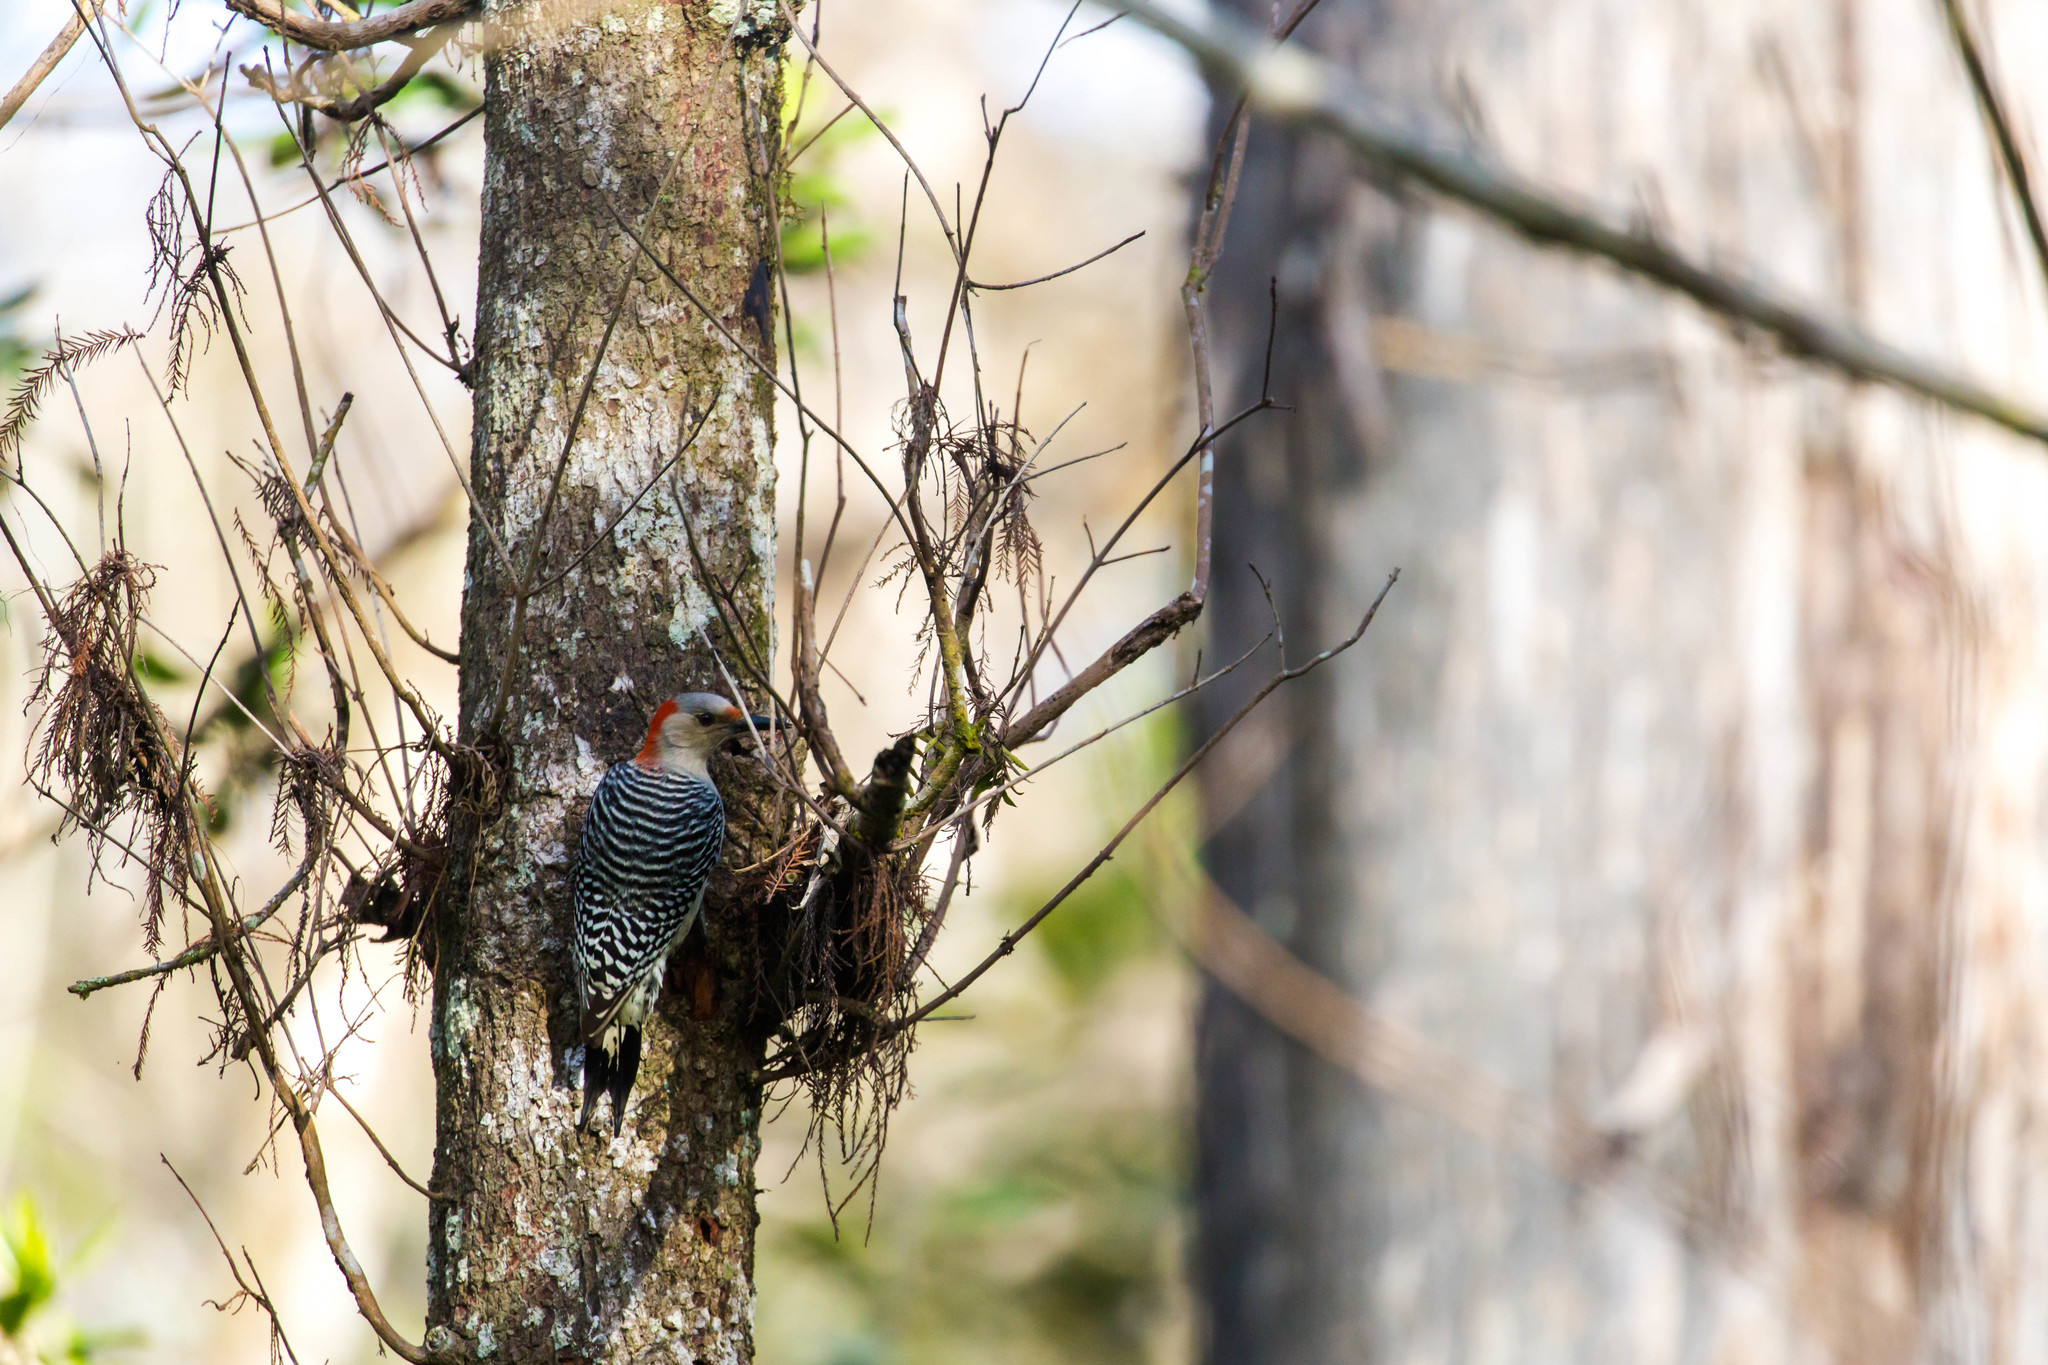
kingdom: Animalia
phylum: Chordata
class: Aves
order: Piciformes
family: Picidae
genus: Melanerpes
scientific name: Melanerpes carolinus
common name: Red-bellied woodpecker
